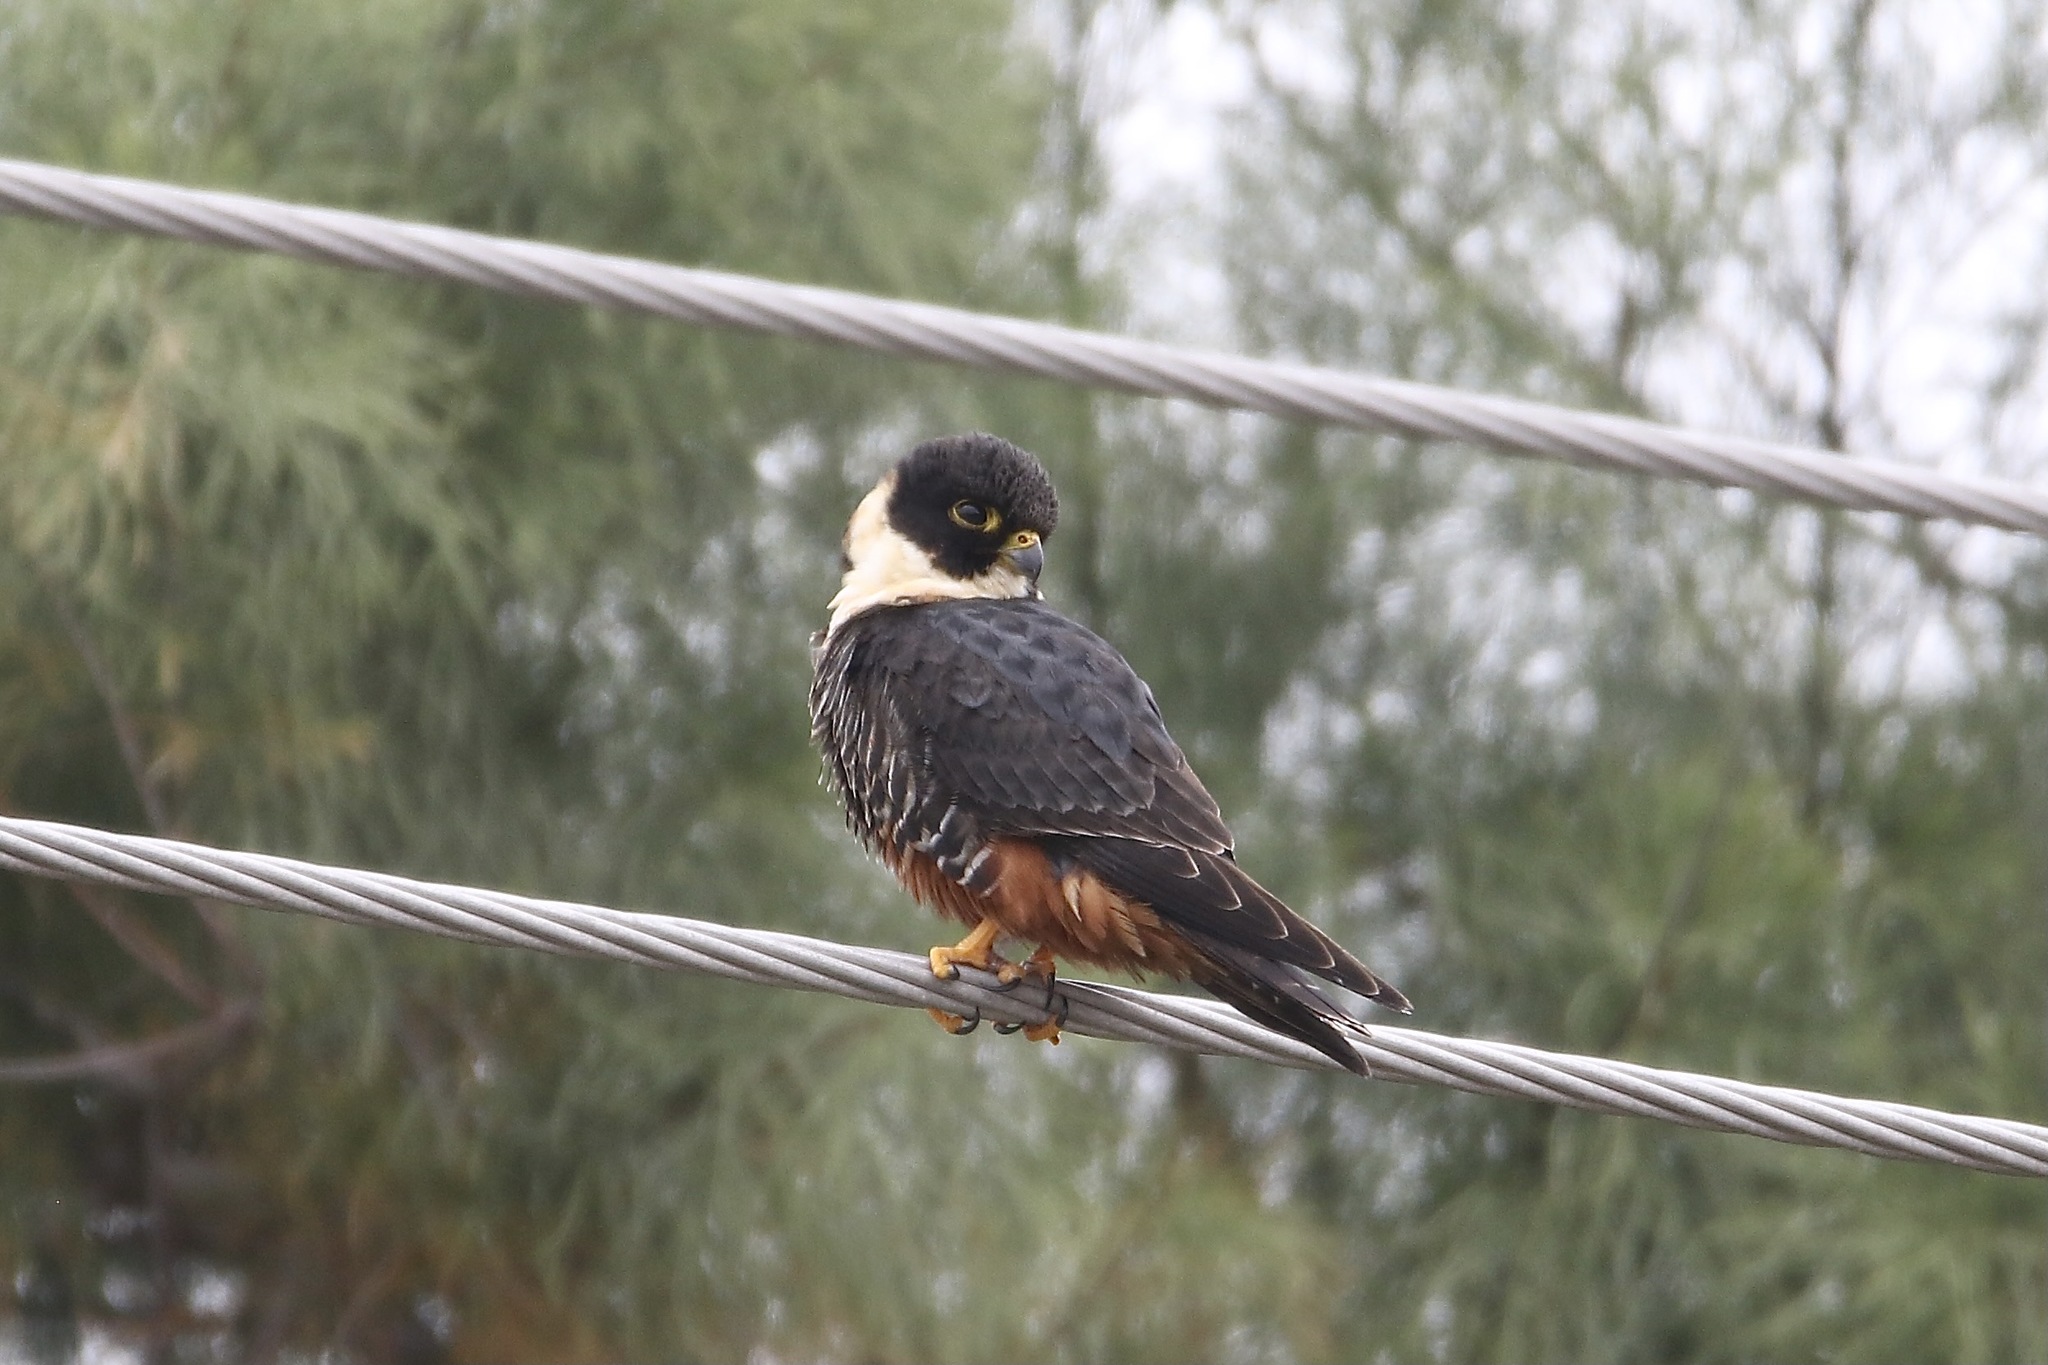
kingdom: Animalia
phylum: Chordata
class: Aves
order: Falconiformes
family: Falconidae
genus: Falco
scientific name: Falco rufigularis
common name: Bat falcon
